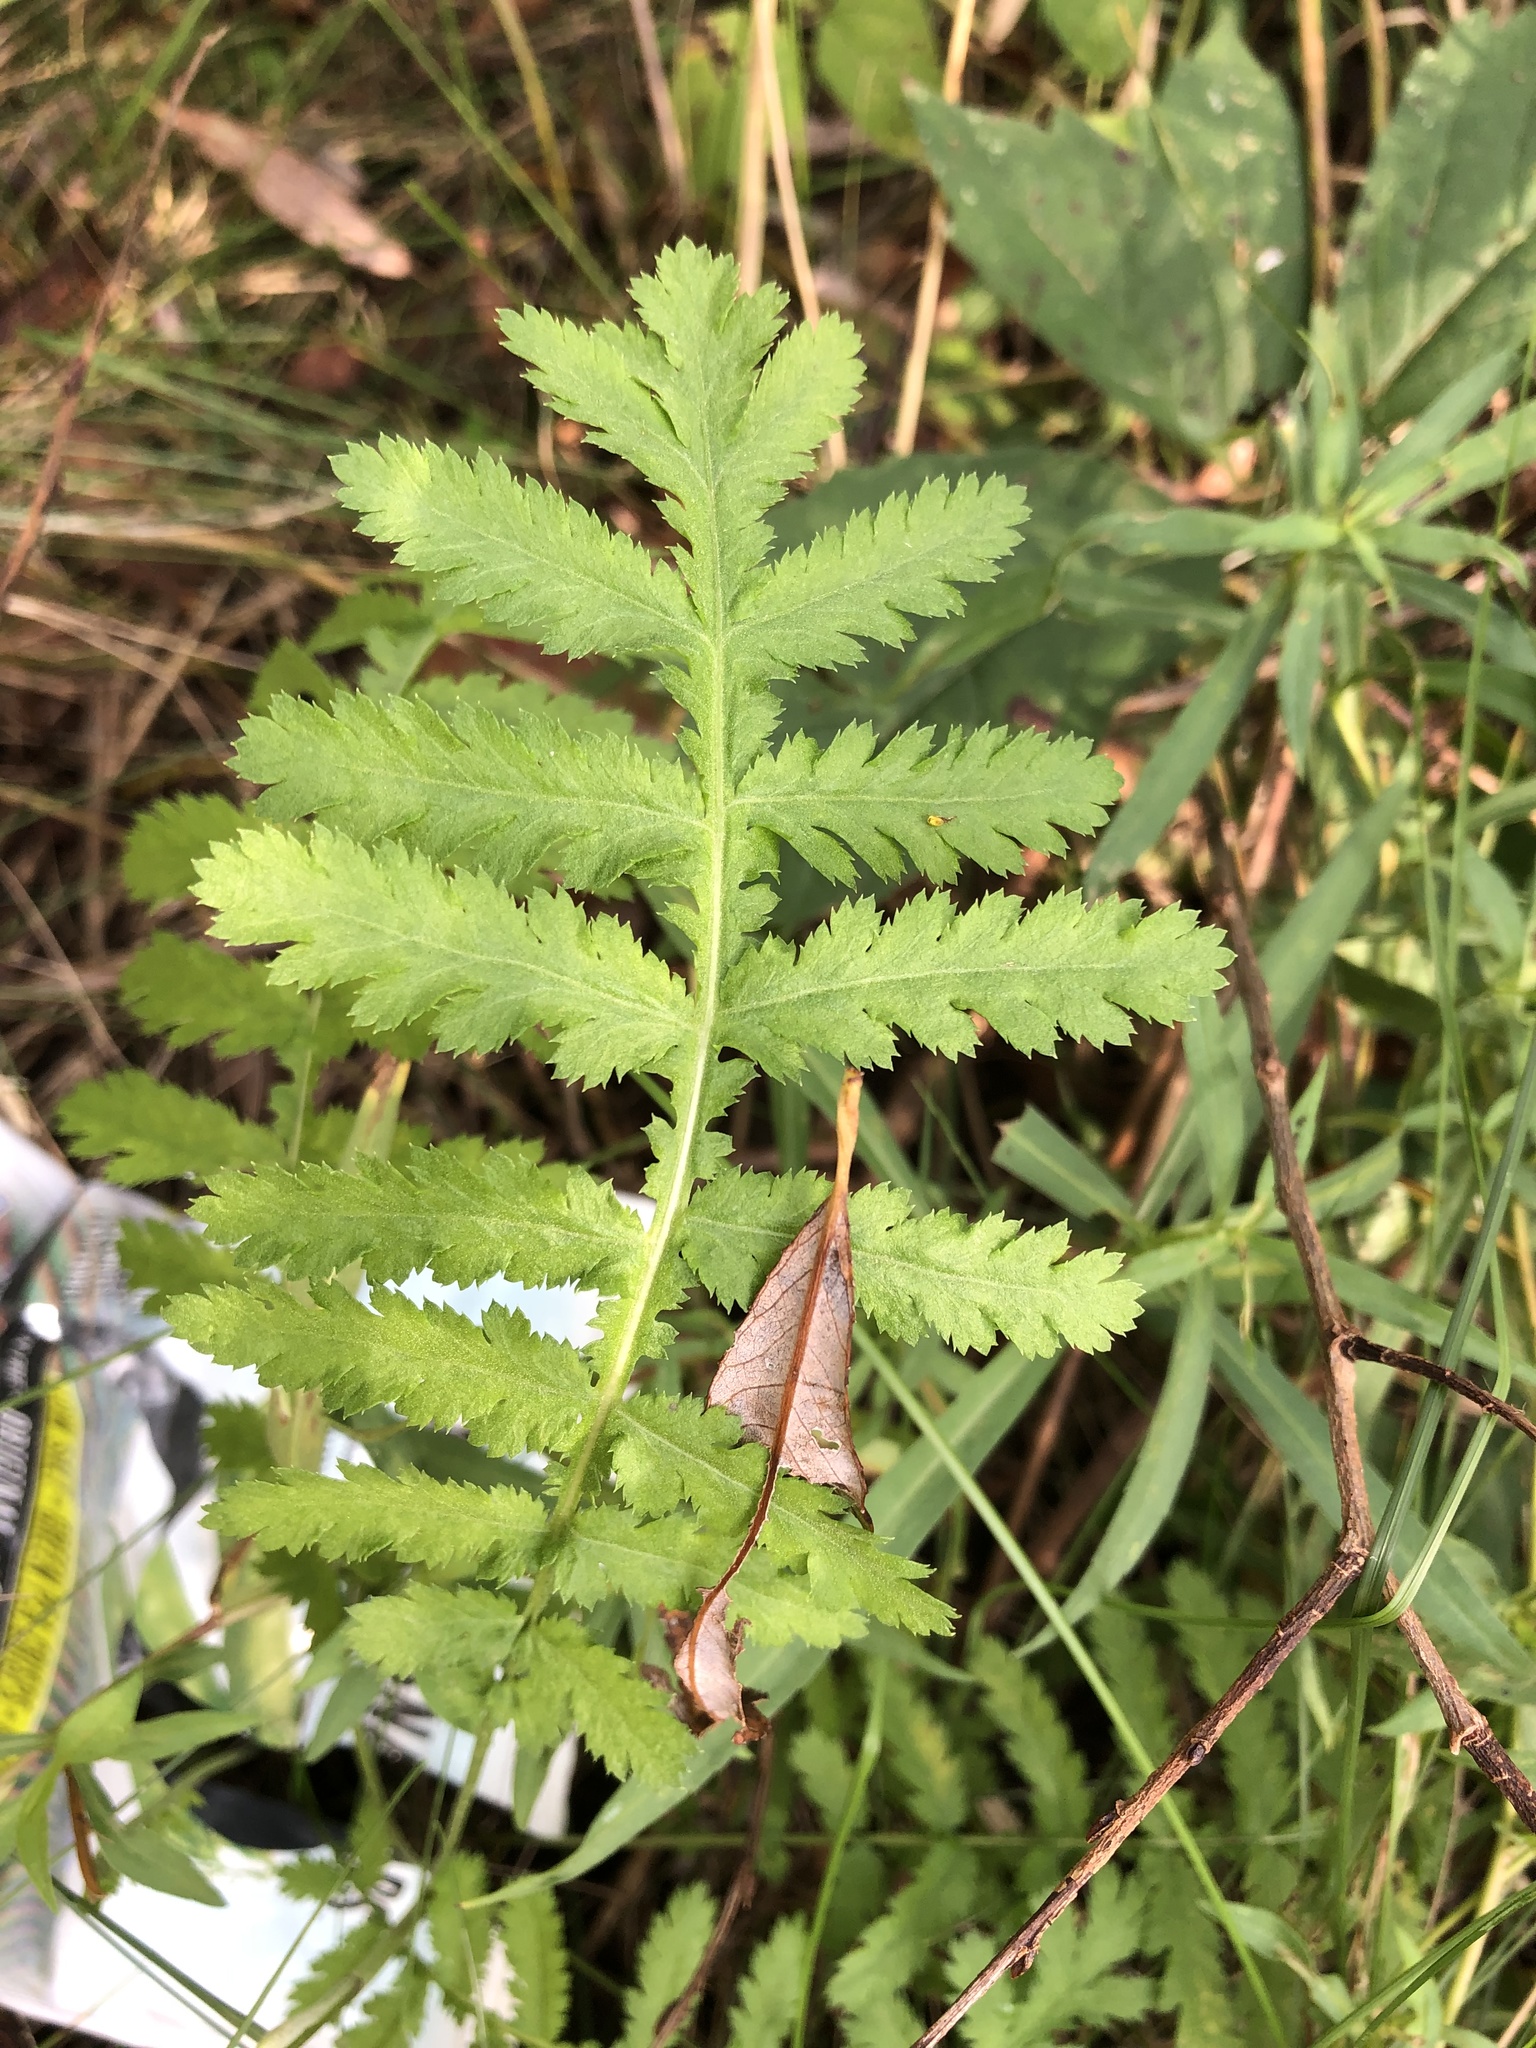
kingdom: Plantae
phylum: Tracheophyta
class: Magnoliopsida
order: Asterales
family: Asteraceae
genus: Tanacetum
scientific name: Tanacetum vulgare
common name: Common tansy
